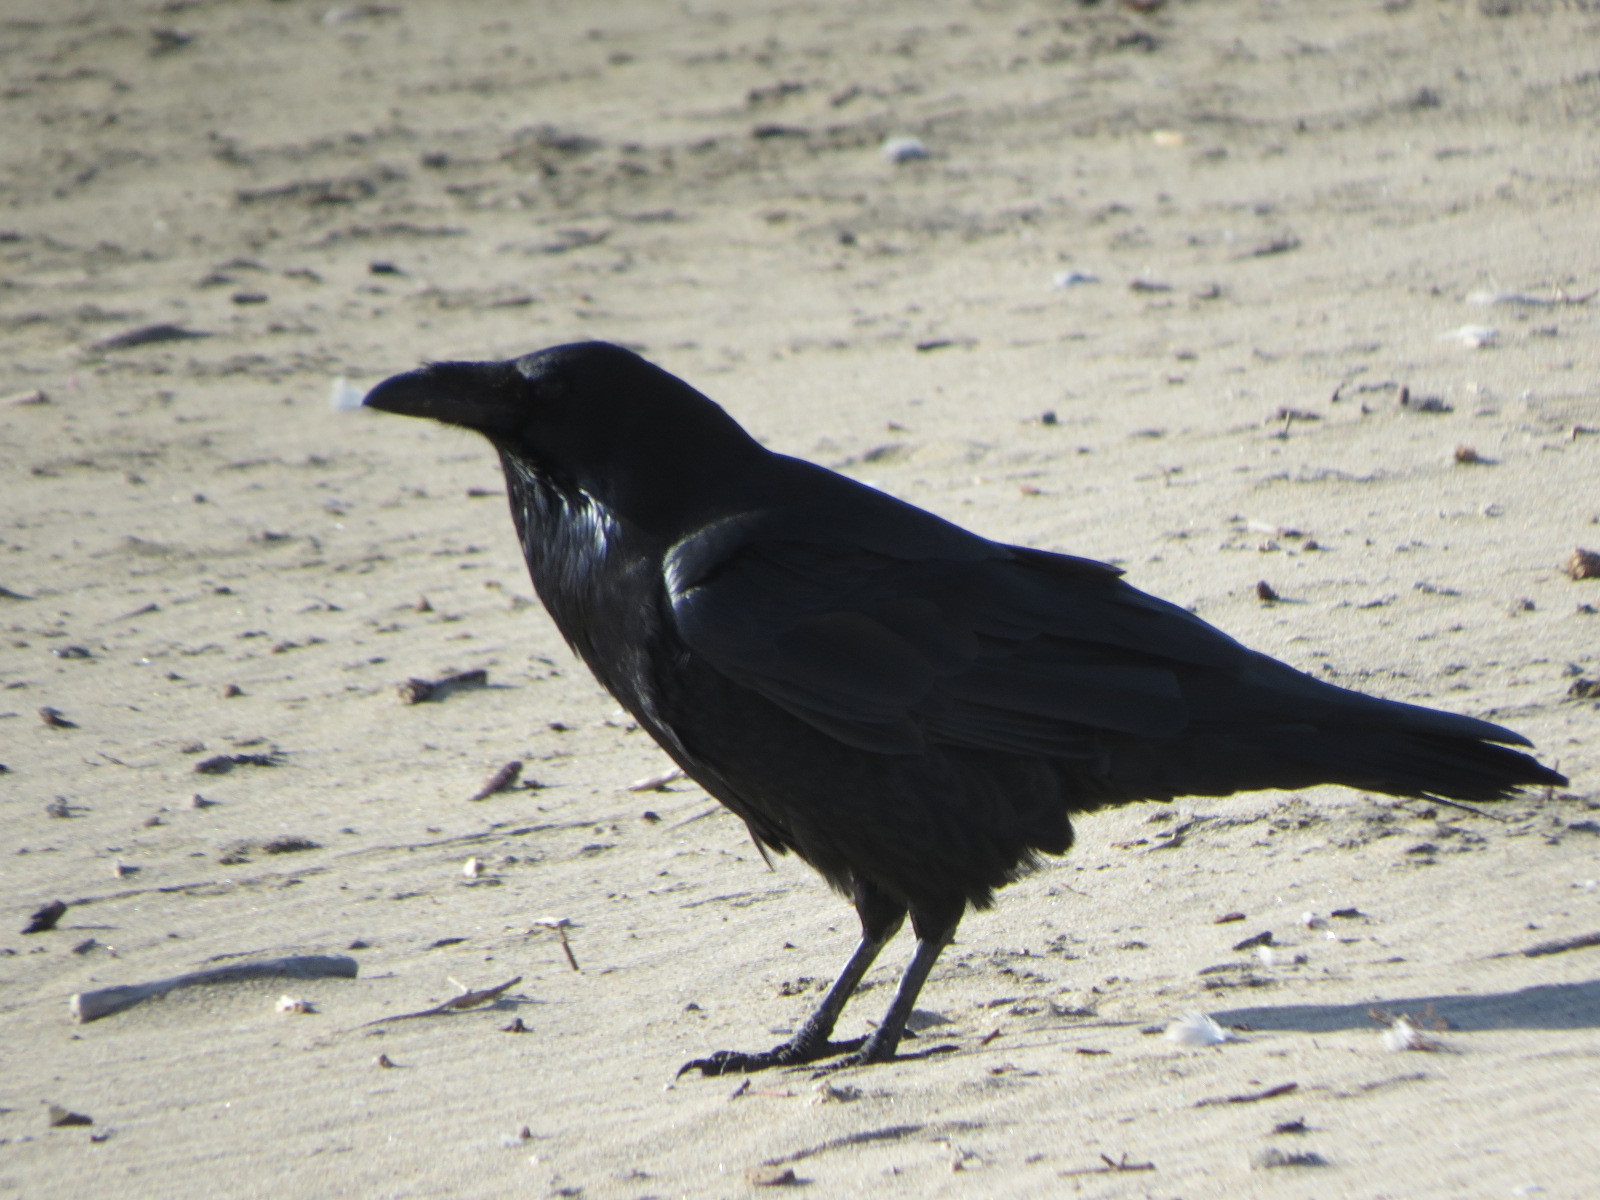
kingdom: Animalia
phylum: Chordata
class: Aves
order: Passeriformes
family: Corvidae
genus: Corvus
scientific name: Corvus corax
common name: Common raven
